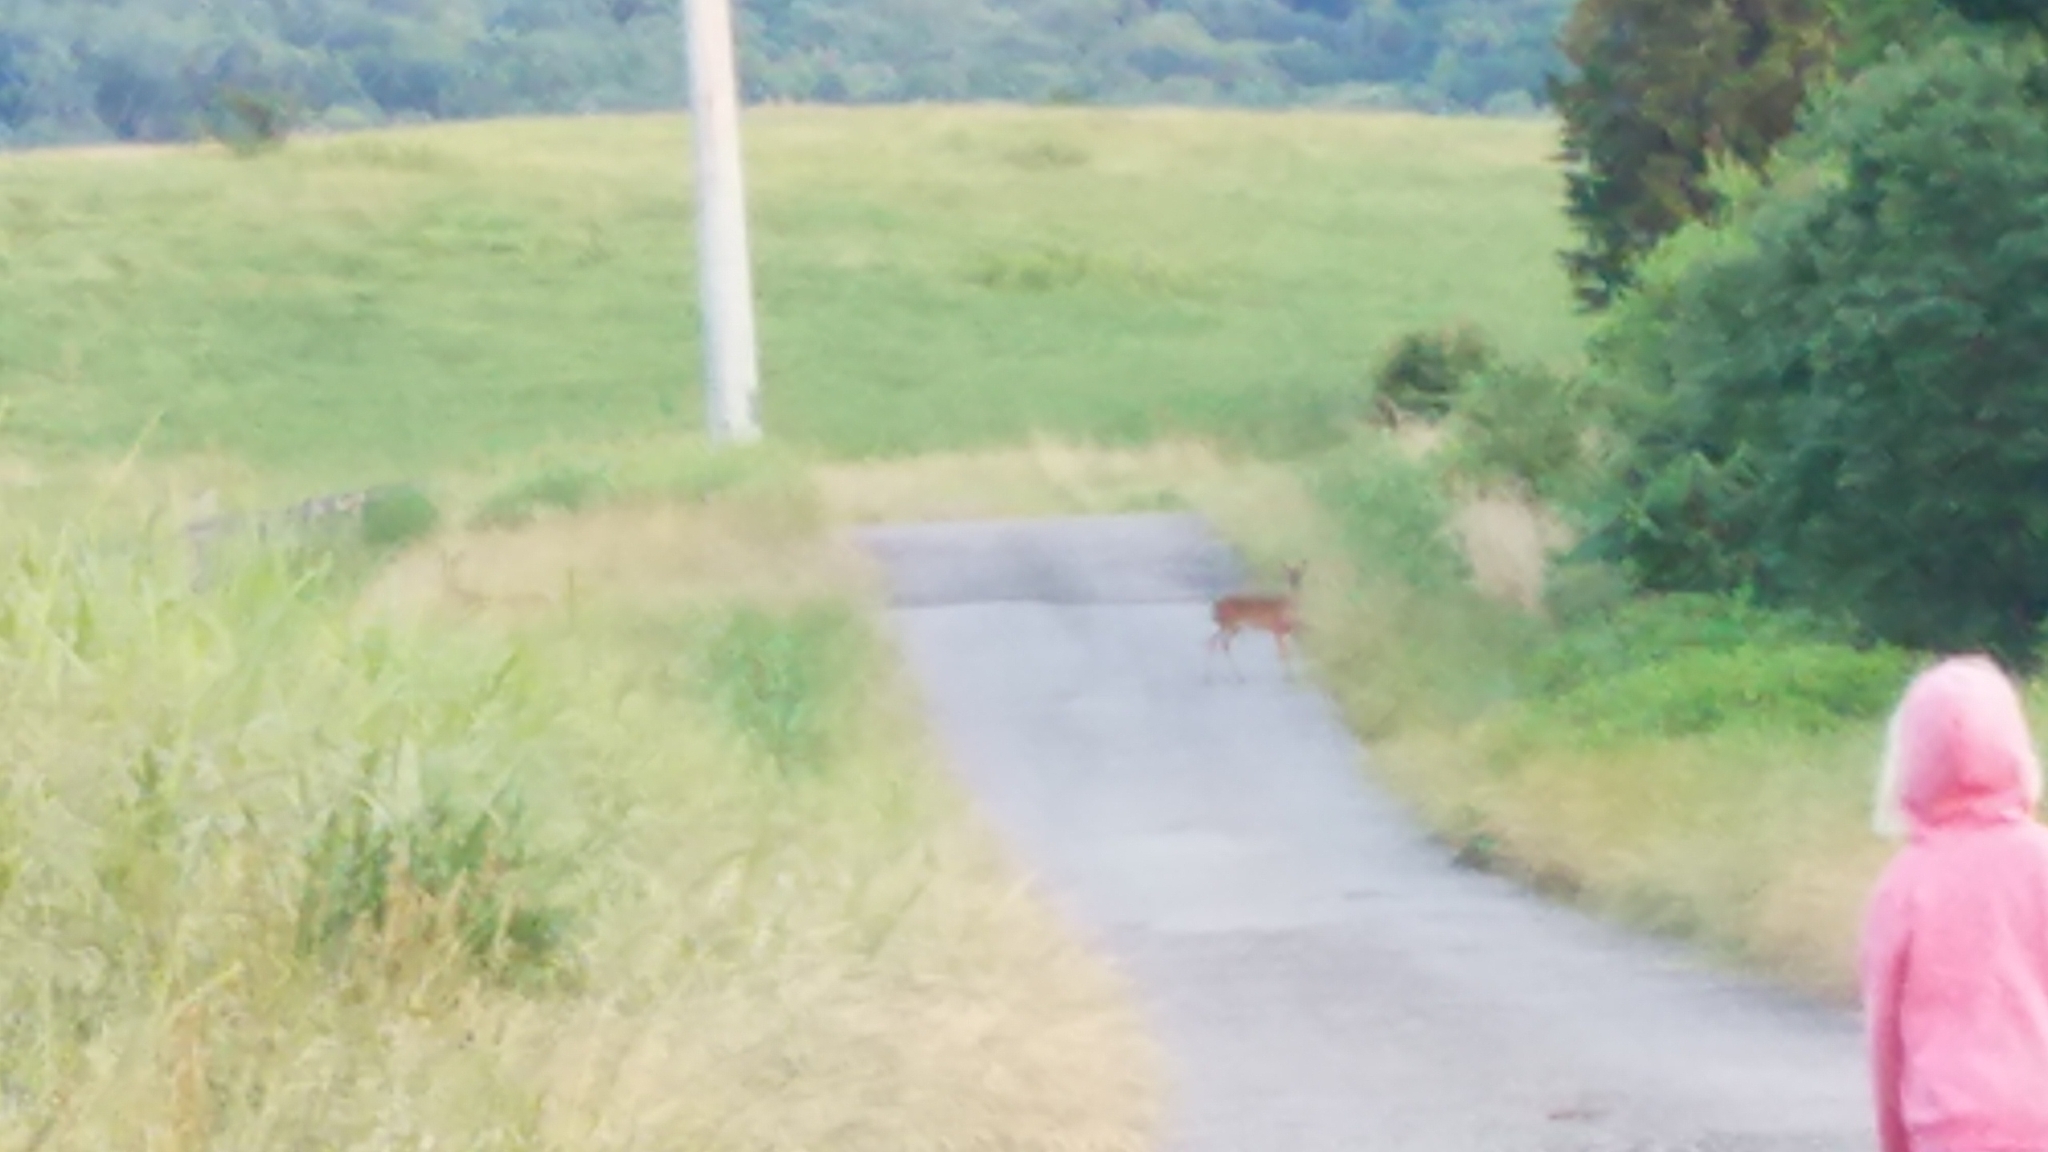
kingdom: Animalia
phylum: Chordata
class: Mammalia
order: Artiodactyla
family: Cervidae
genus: Odocoileus
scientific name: Odocoileus virginianus
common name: White-tailed deer
